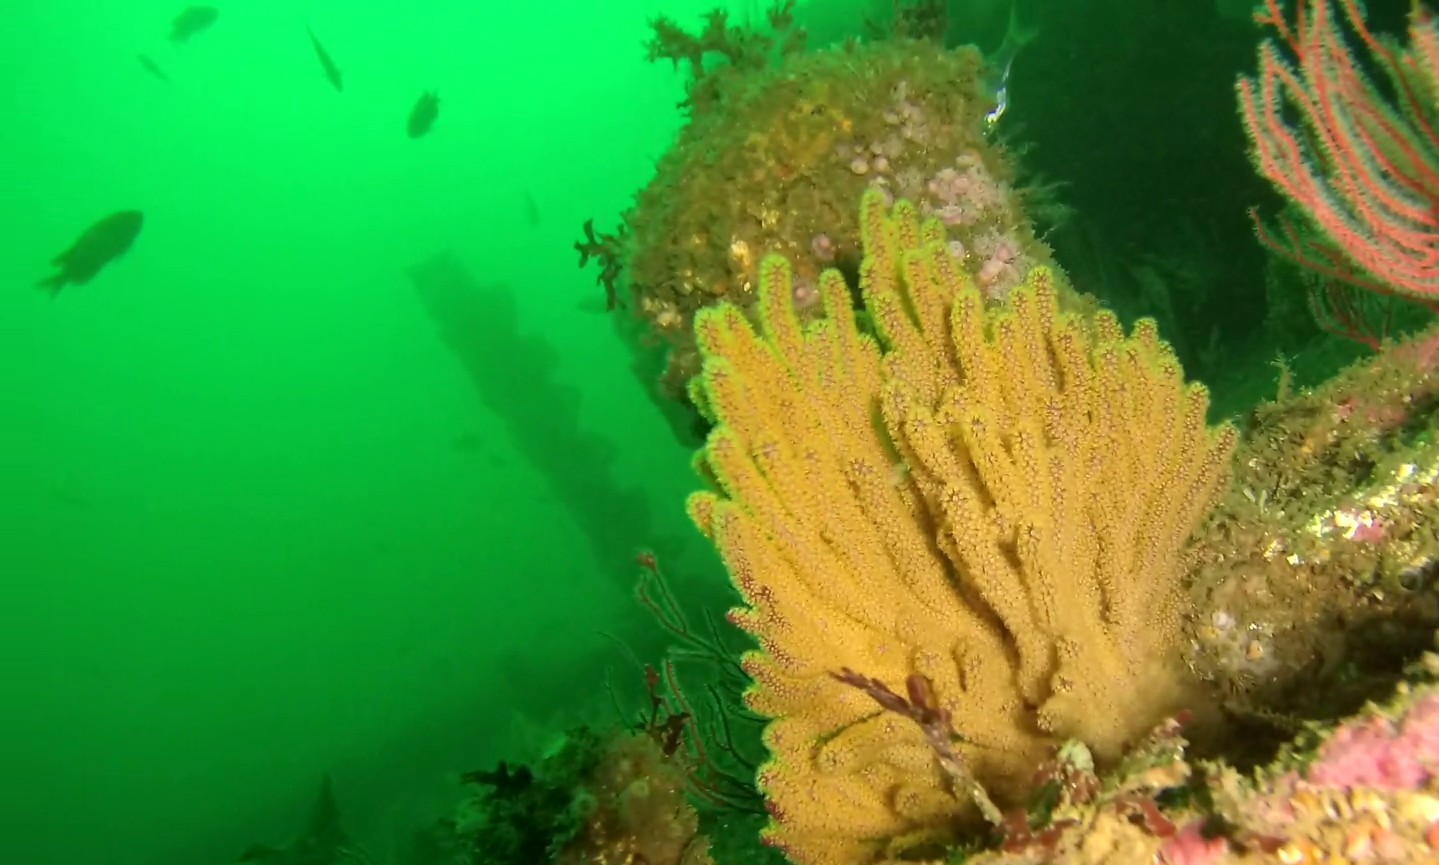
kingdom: Animalia
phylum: Cnidaria
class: Anthozoa
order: Malacalcyonacea
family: Plexauridae
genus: Muricea
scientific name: Muricea californica
